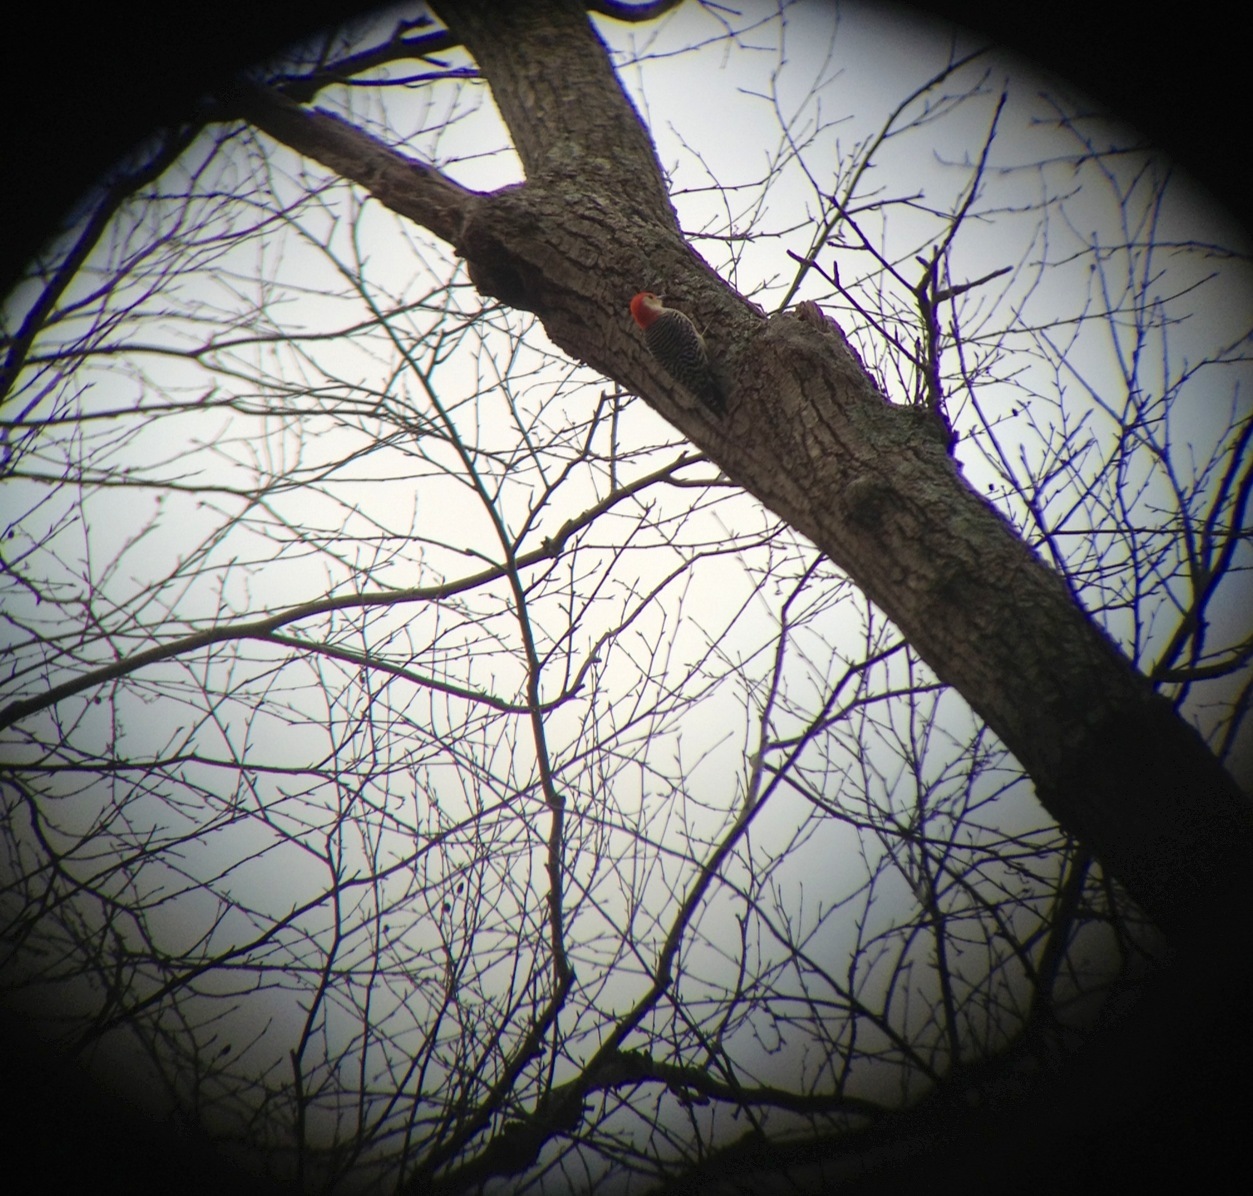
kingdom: Animalia
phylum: Chordata
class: Aves
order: Piciformes
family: Picidae
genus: Melanerpes
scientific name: Melanerpes carolinus
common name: Red-bellied woodpecker
